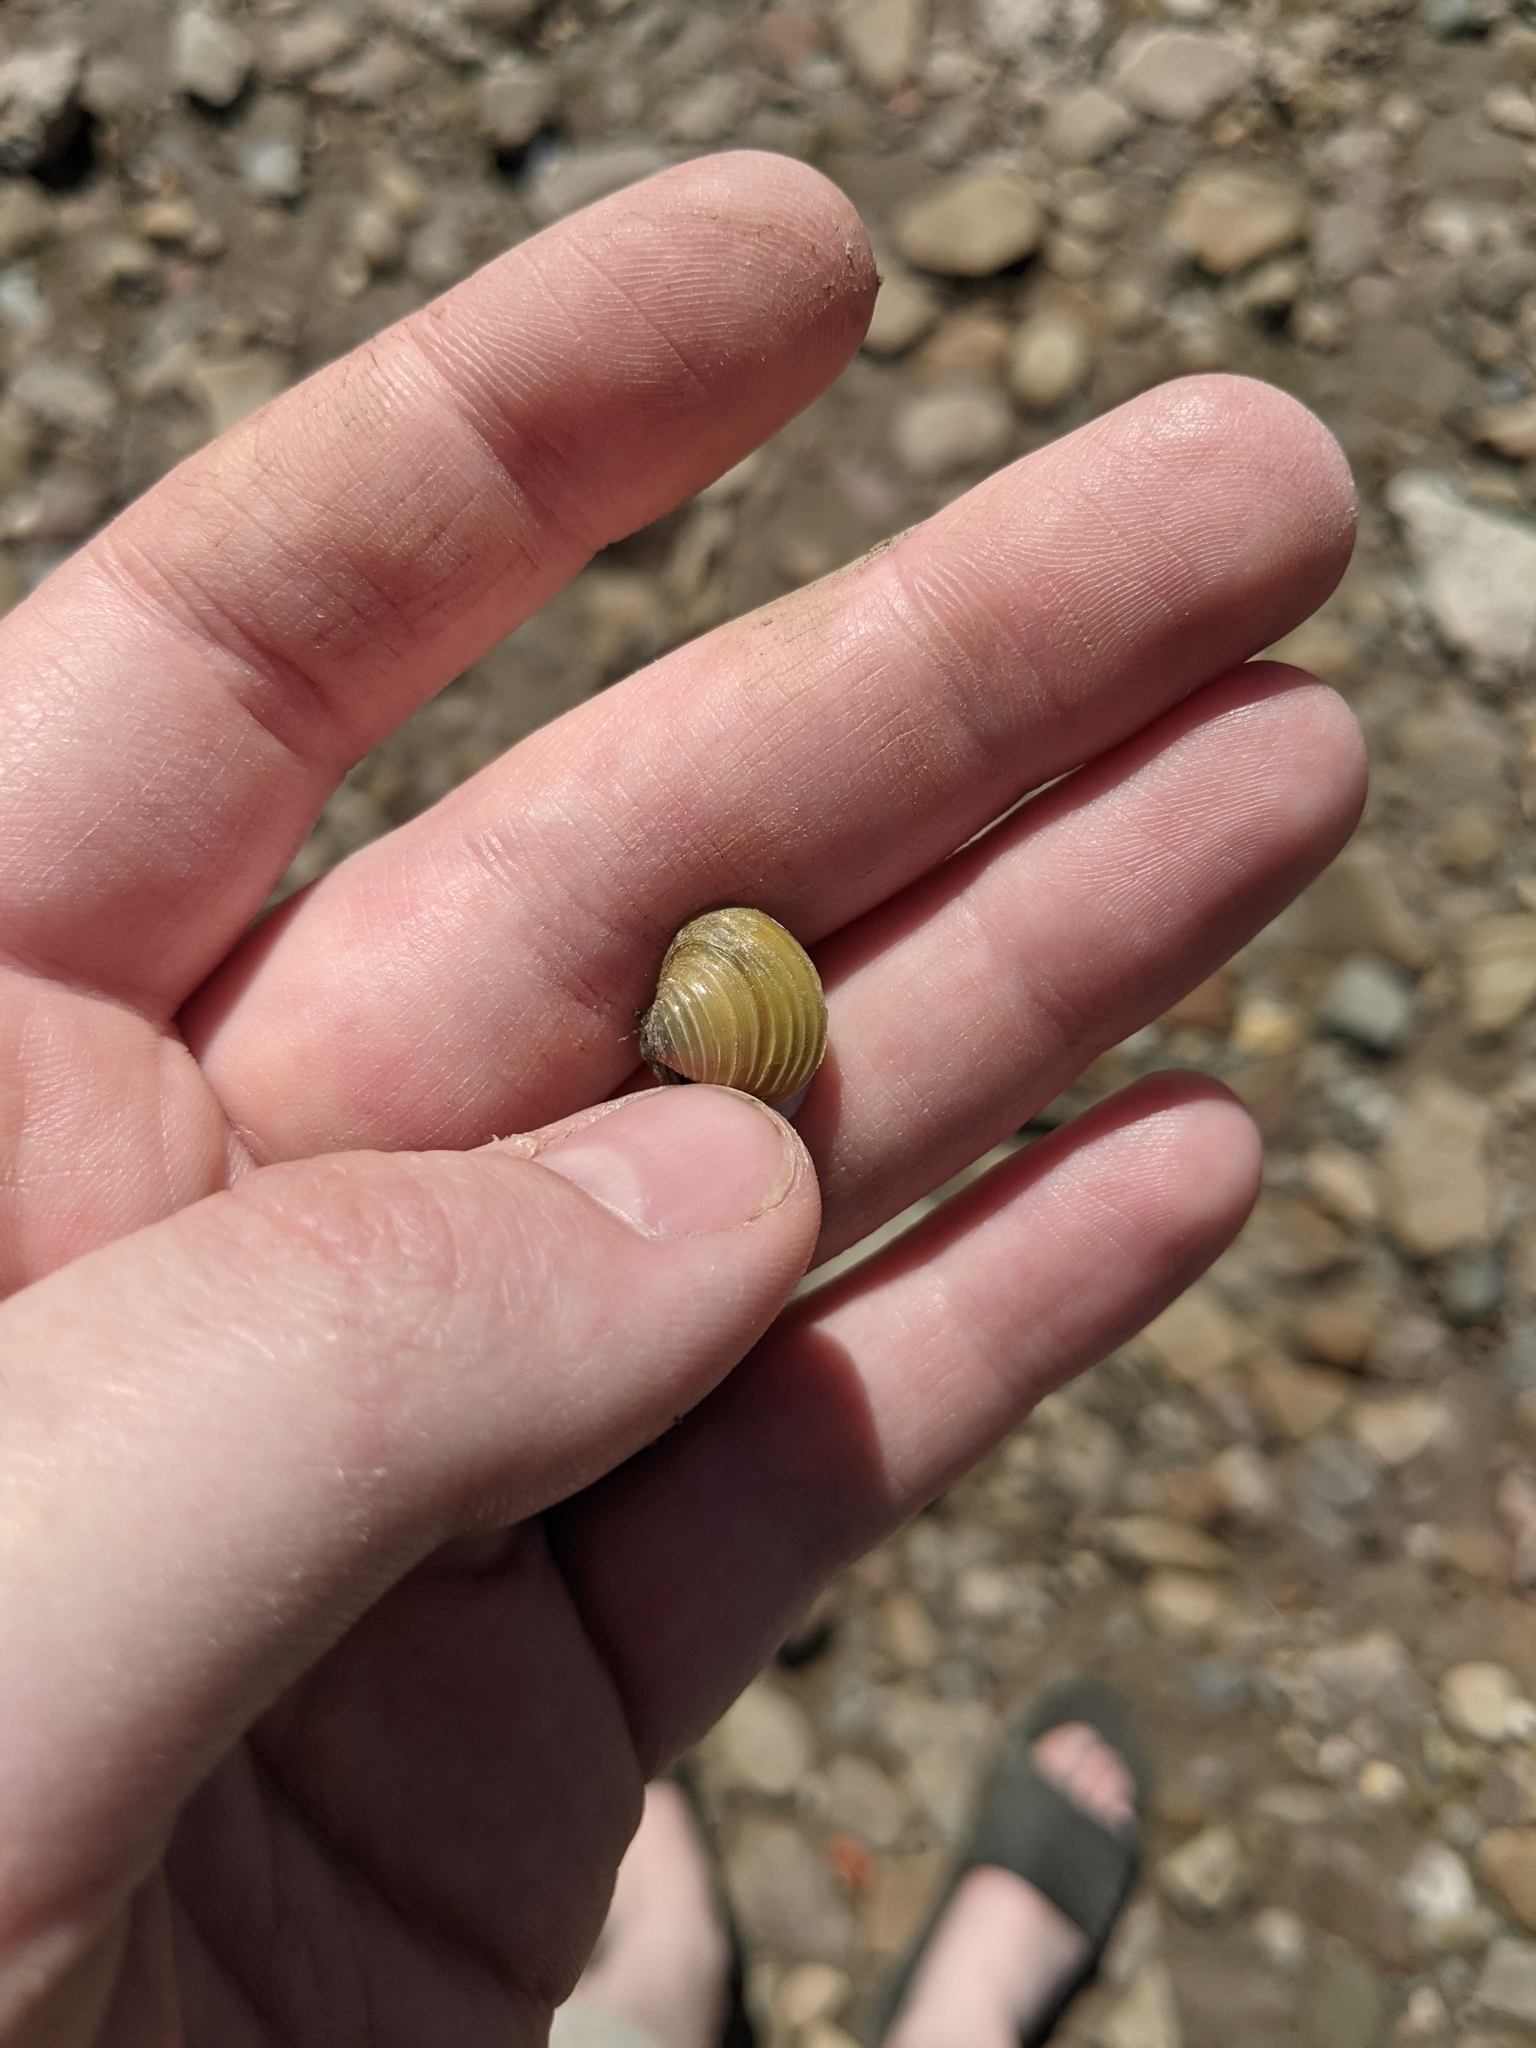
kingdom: Animalia
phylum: Mollusca
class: Bivalvia
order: Venerida
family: Cyrenidae
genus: Corbicula
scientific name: Corbicula fluminea
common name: Asian clam
